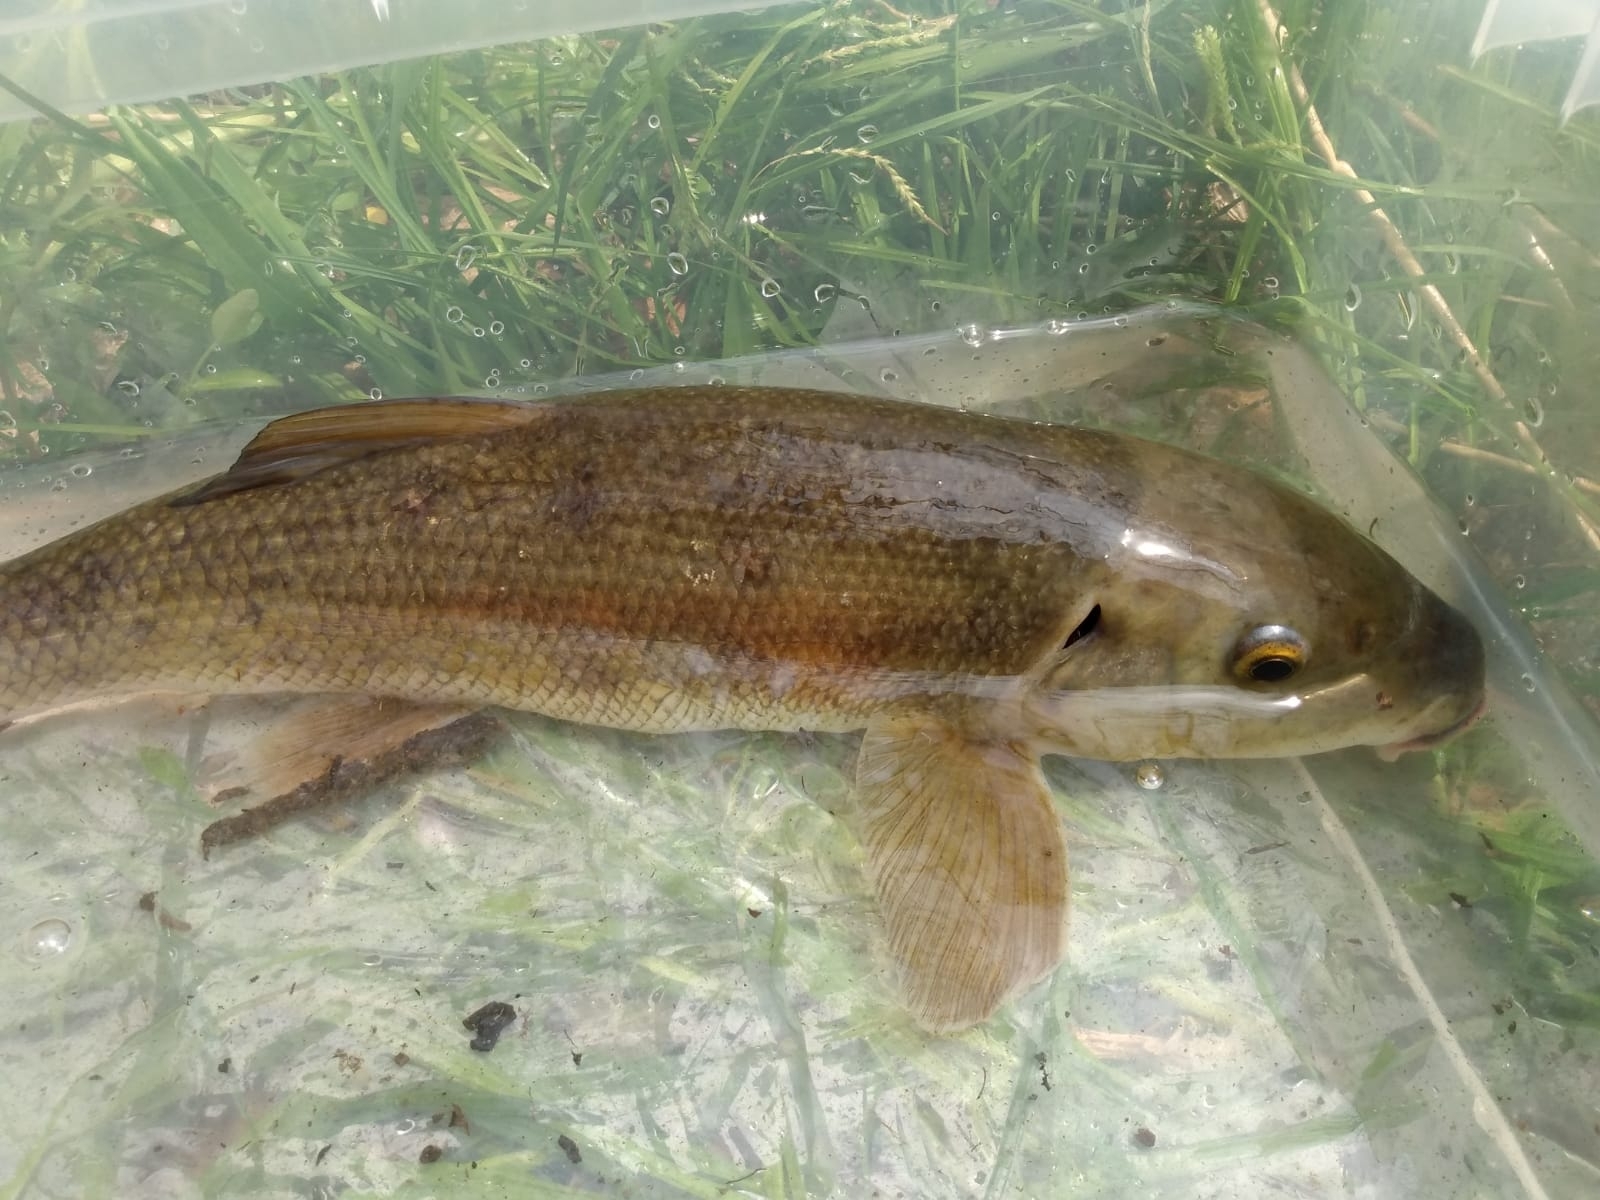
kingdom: Animalia
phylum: Chordata
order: Cypriniformes
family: Catostomidae
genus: Catostomus
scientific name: Catostomus commersonii
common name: White sucker
